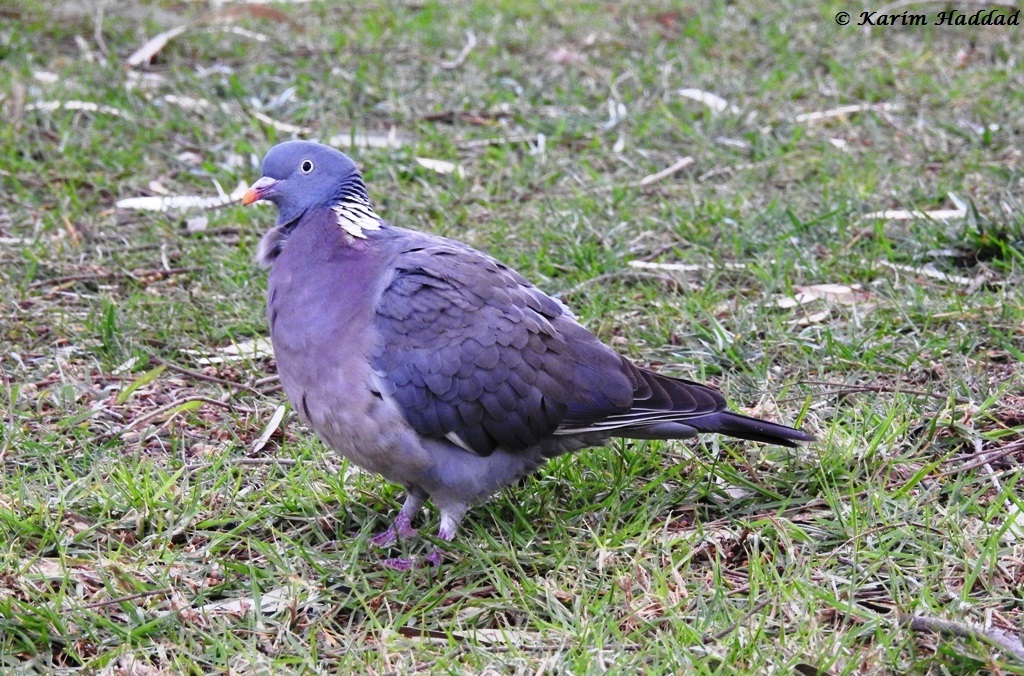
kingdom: Animalia
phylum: Chordata
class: Aves
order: Columbiformes
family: Columbidae
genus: Columba
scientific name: Columba palumbus
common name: Common wood pigeon
